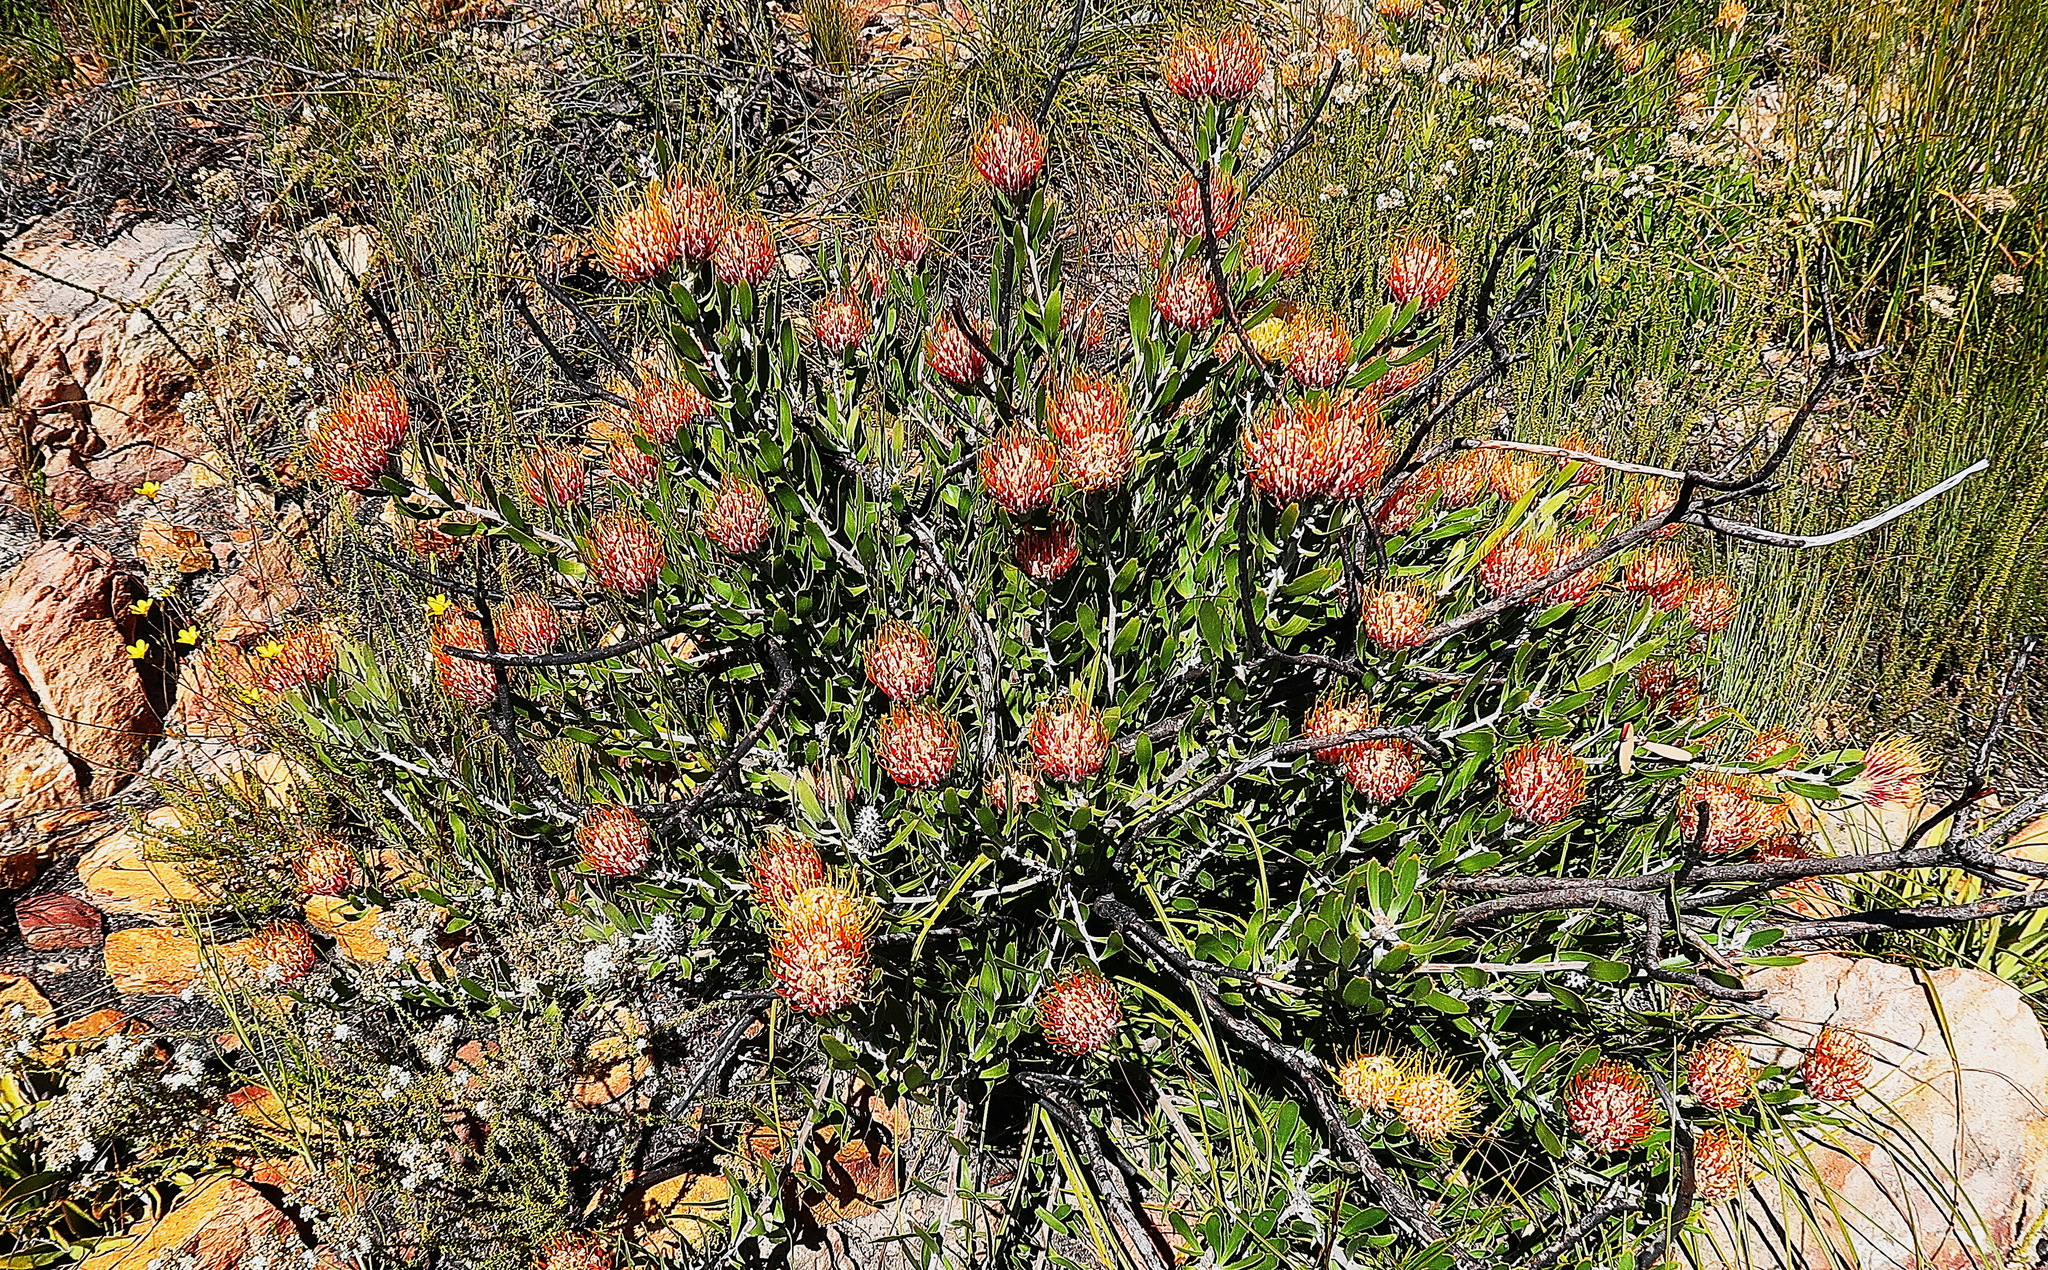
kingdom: Plantae
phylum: Tracheophyta
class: Magnoliopsida
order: Proteales
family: Proteaceae
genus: Leucospermum
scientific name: Leucospermum cuneiforme
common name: Common pincushion
